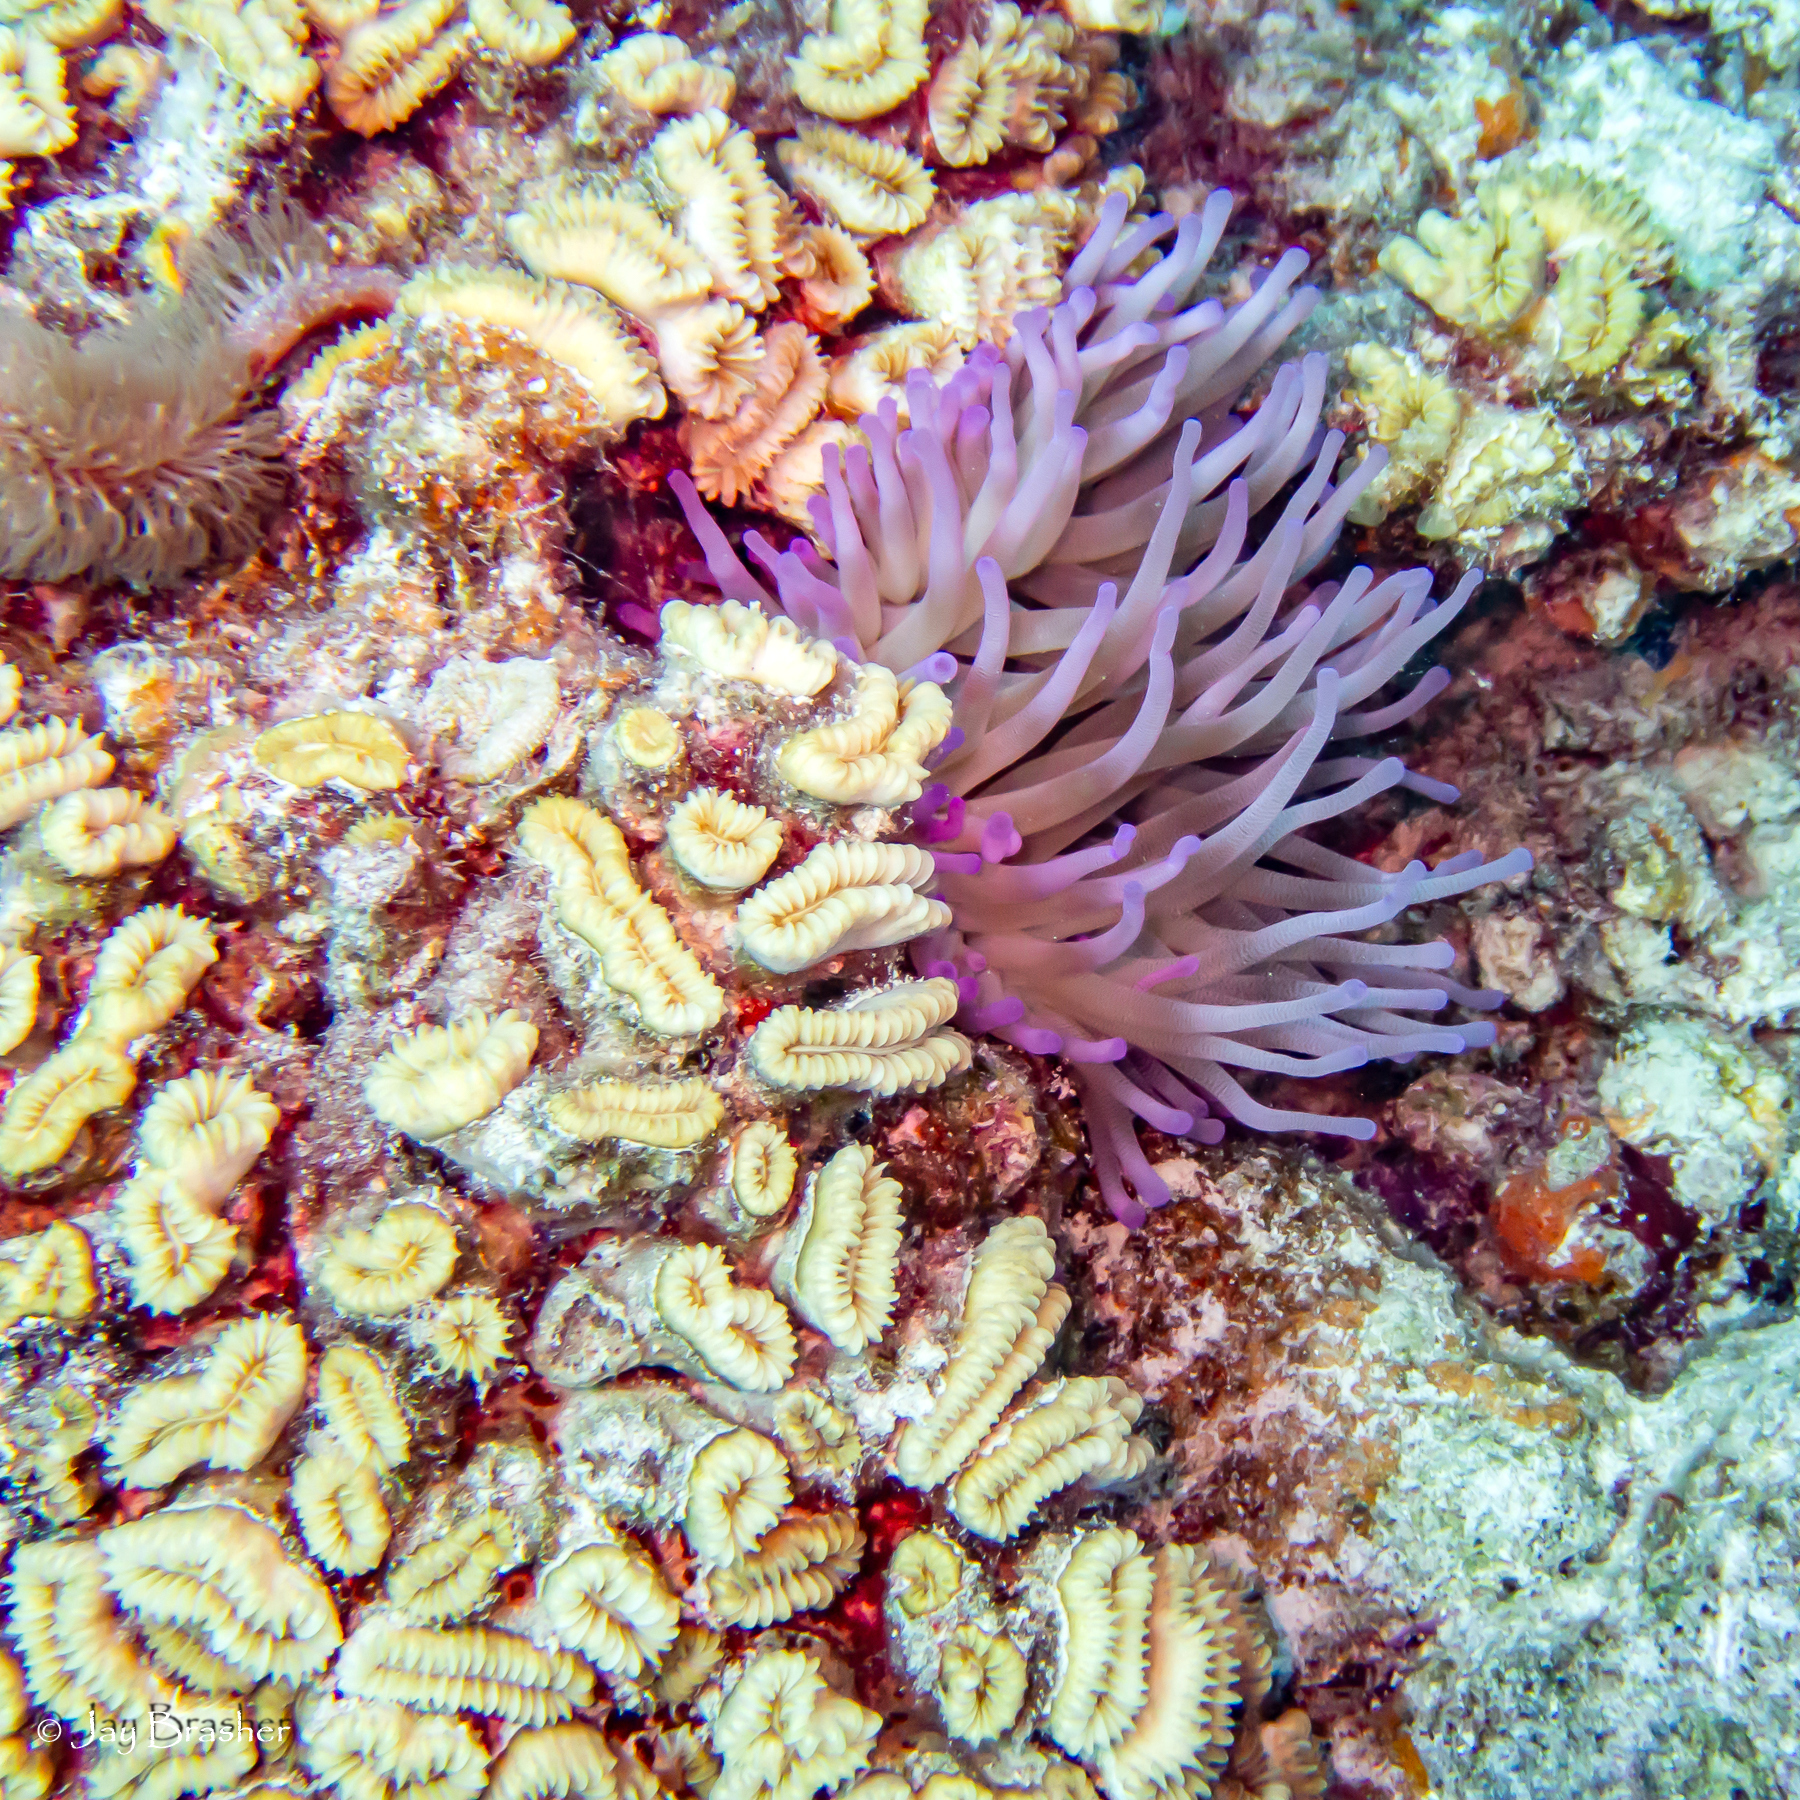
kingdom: Animalia
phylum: Cnidaria
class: Anthozoa
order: Actiniaria
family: Actiniidae
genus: Condylactis
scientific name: Condylactis gigantea
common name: Giant caribbean anemone
